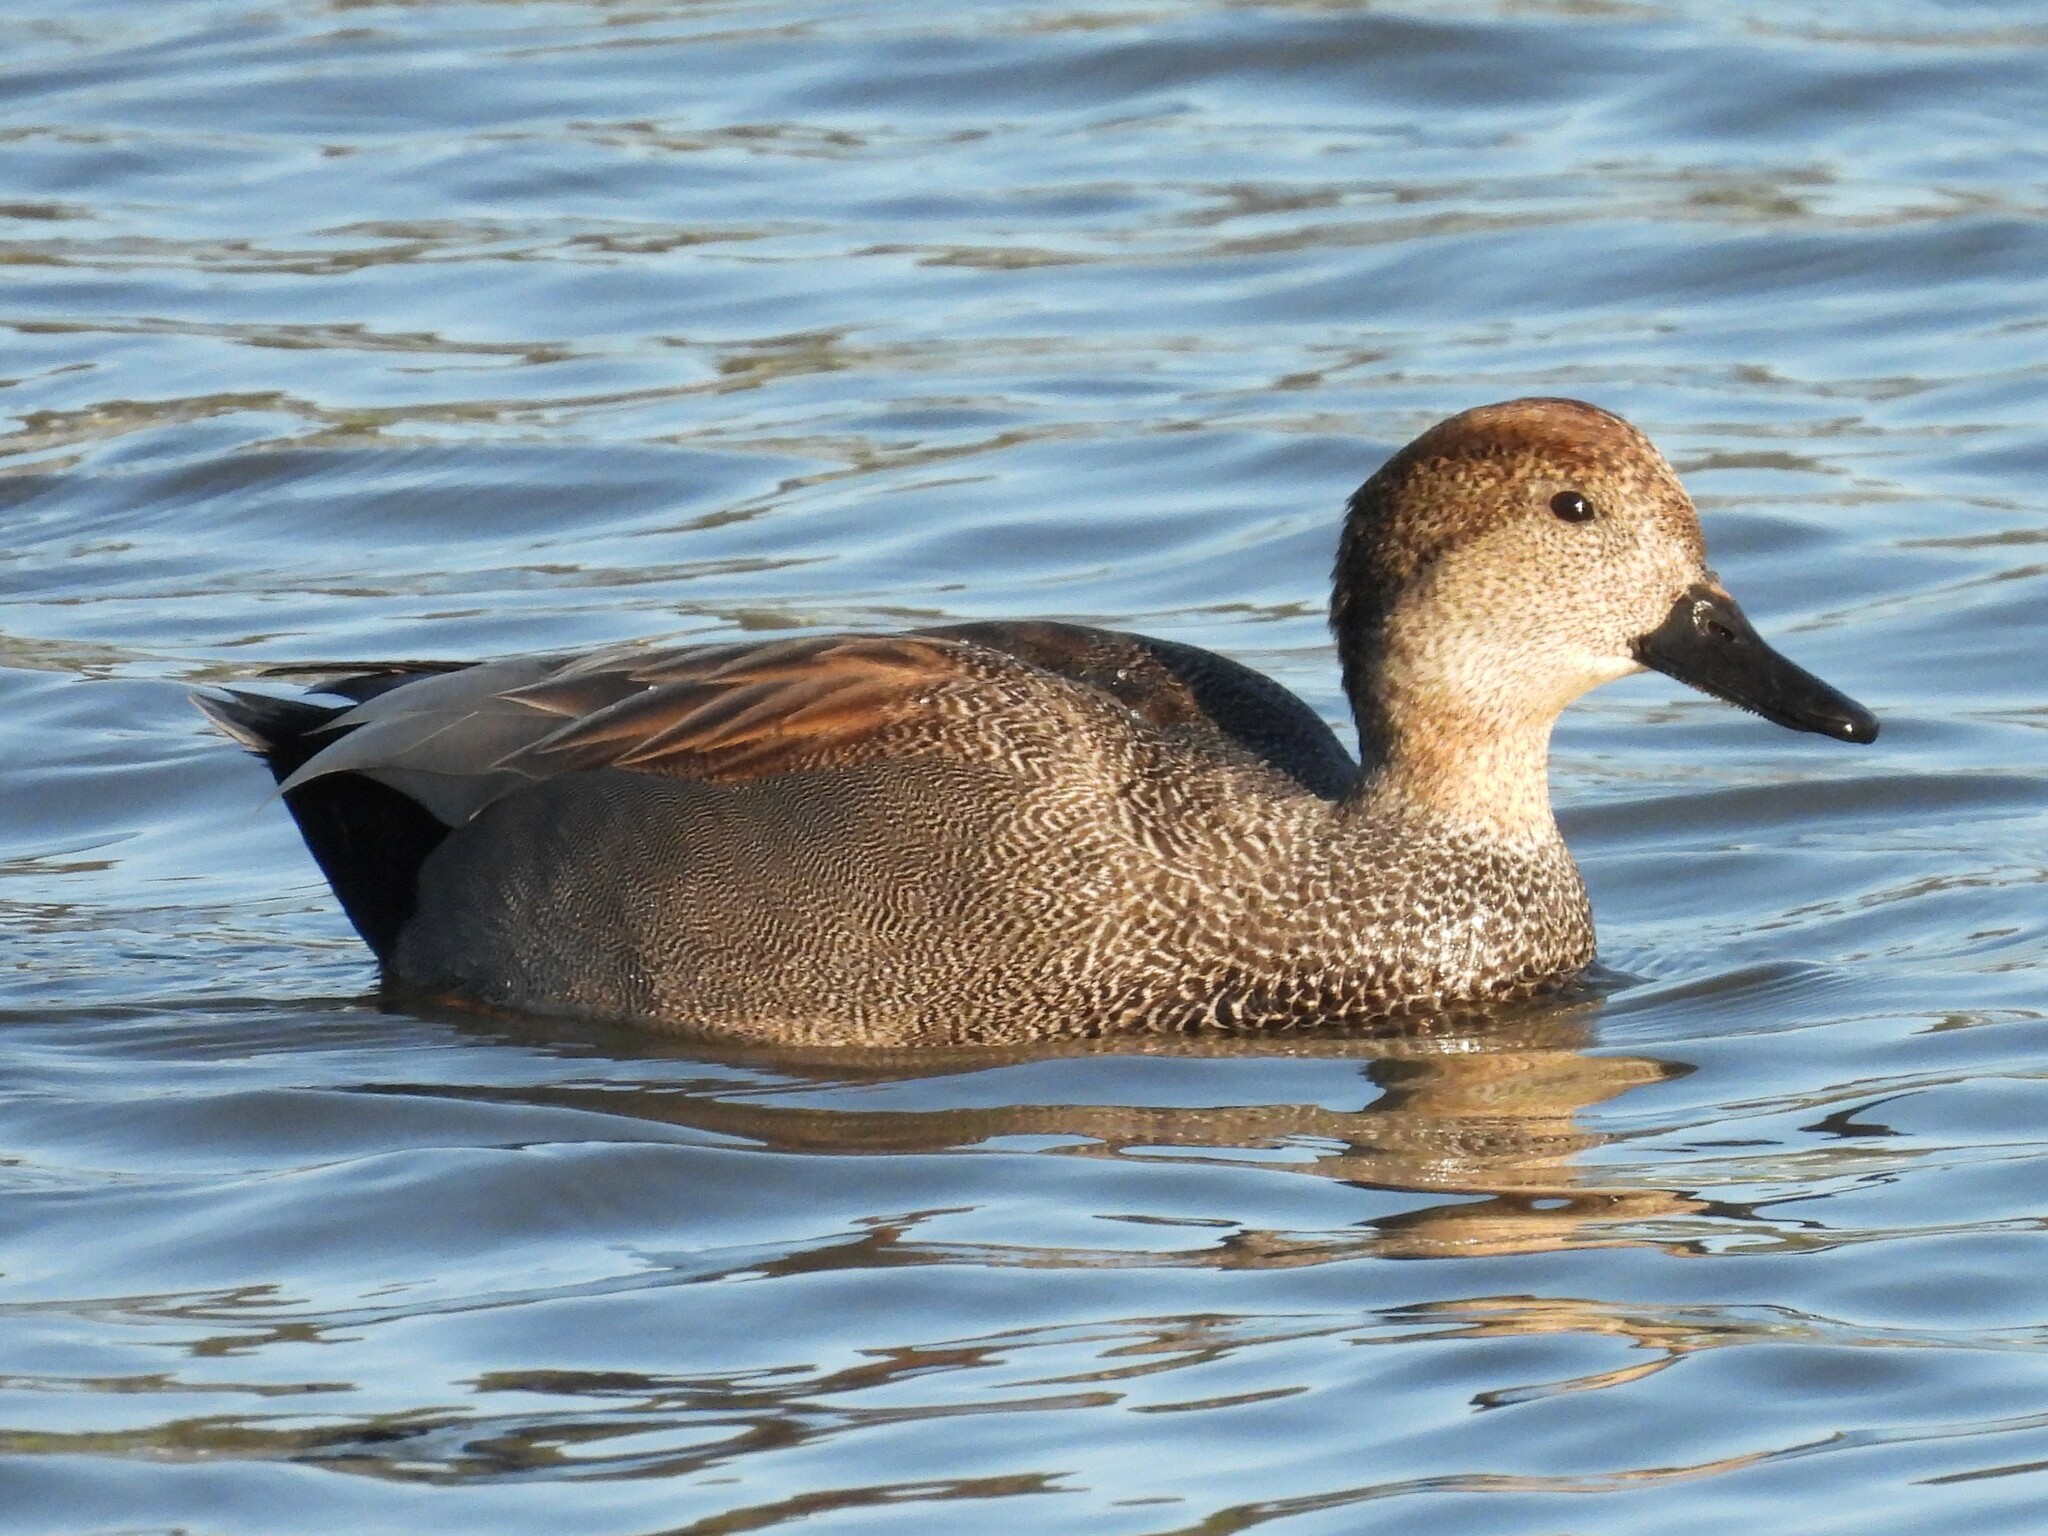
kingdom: Animalia
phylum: Chordata
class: Aves
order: Anseriformes
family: Anatidae
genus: Mareca
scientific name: Mareca strepera
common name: Gadwall
